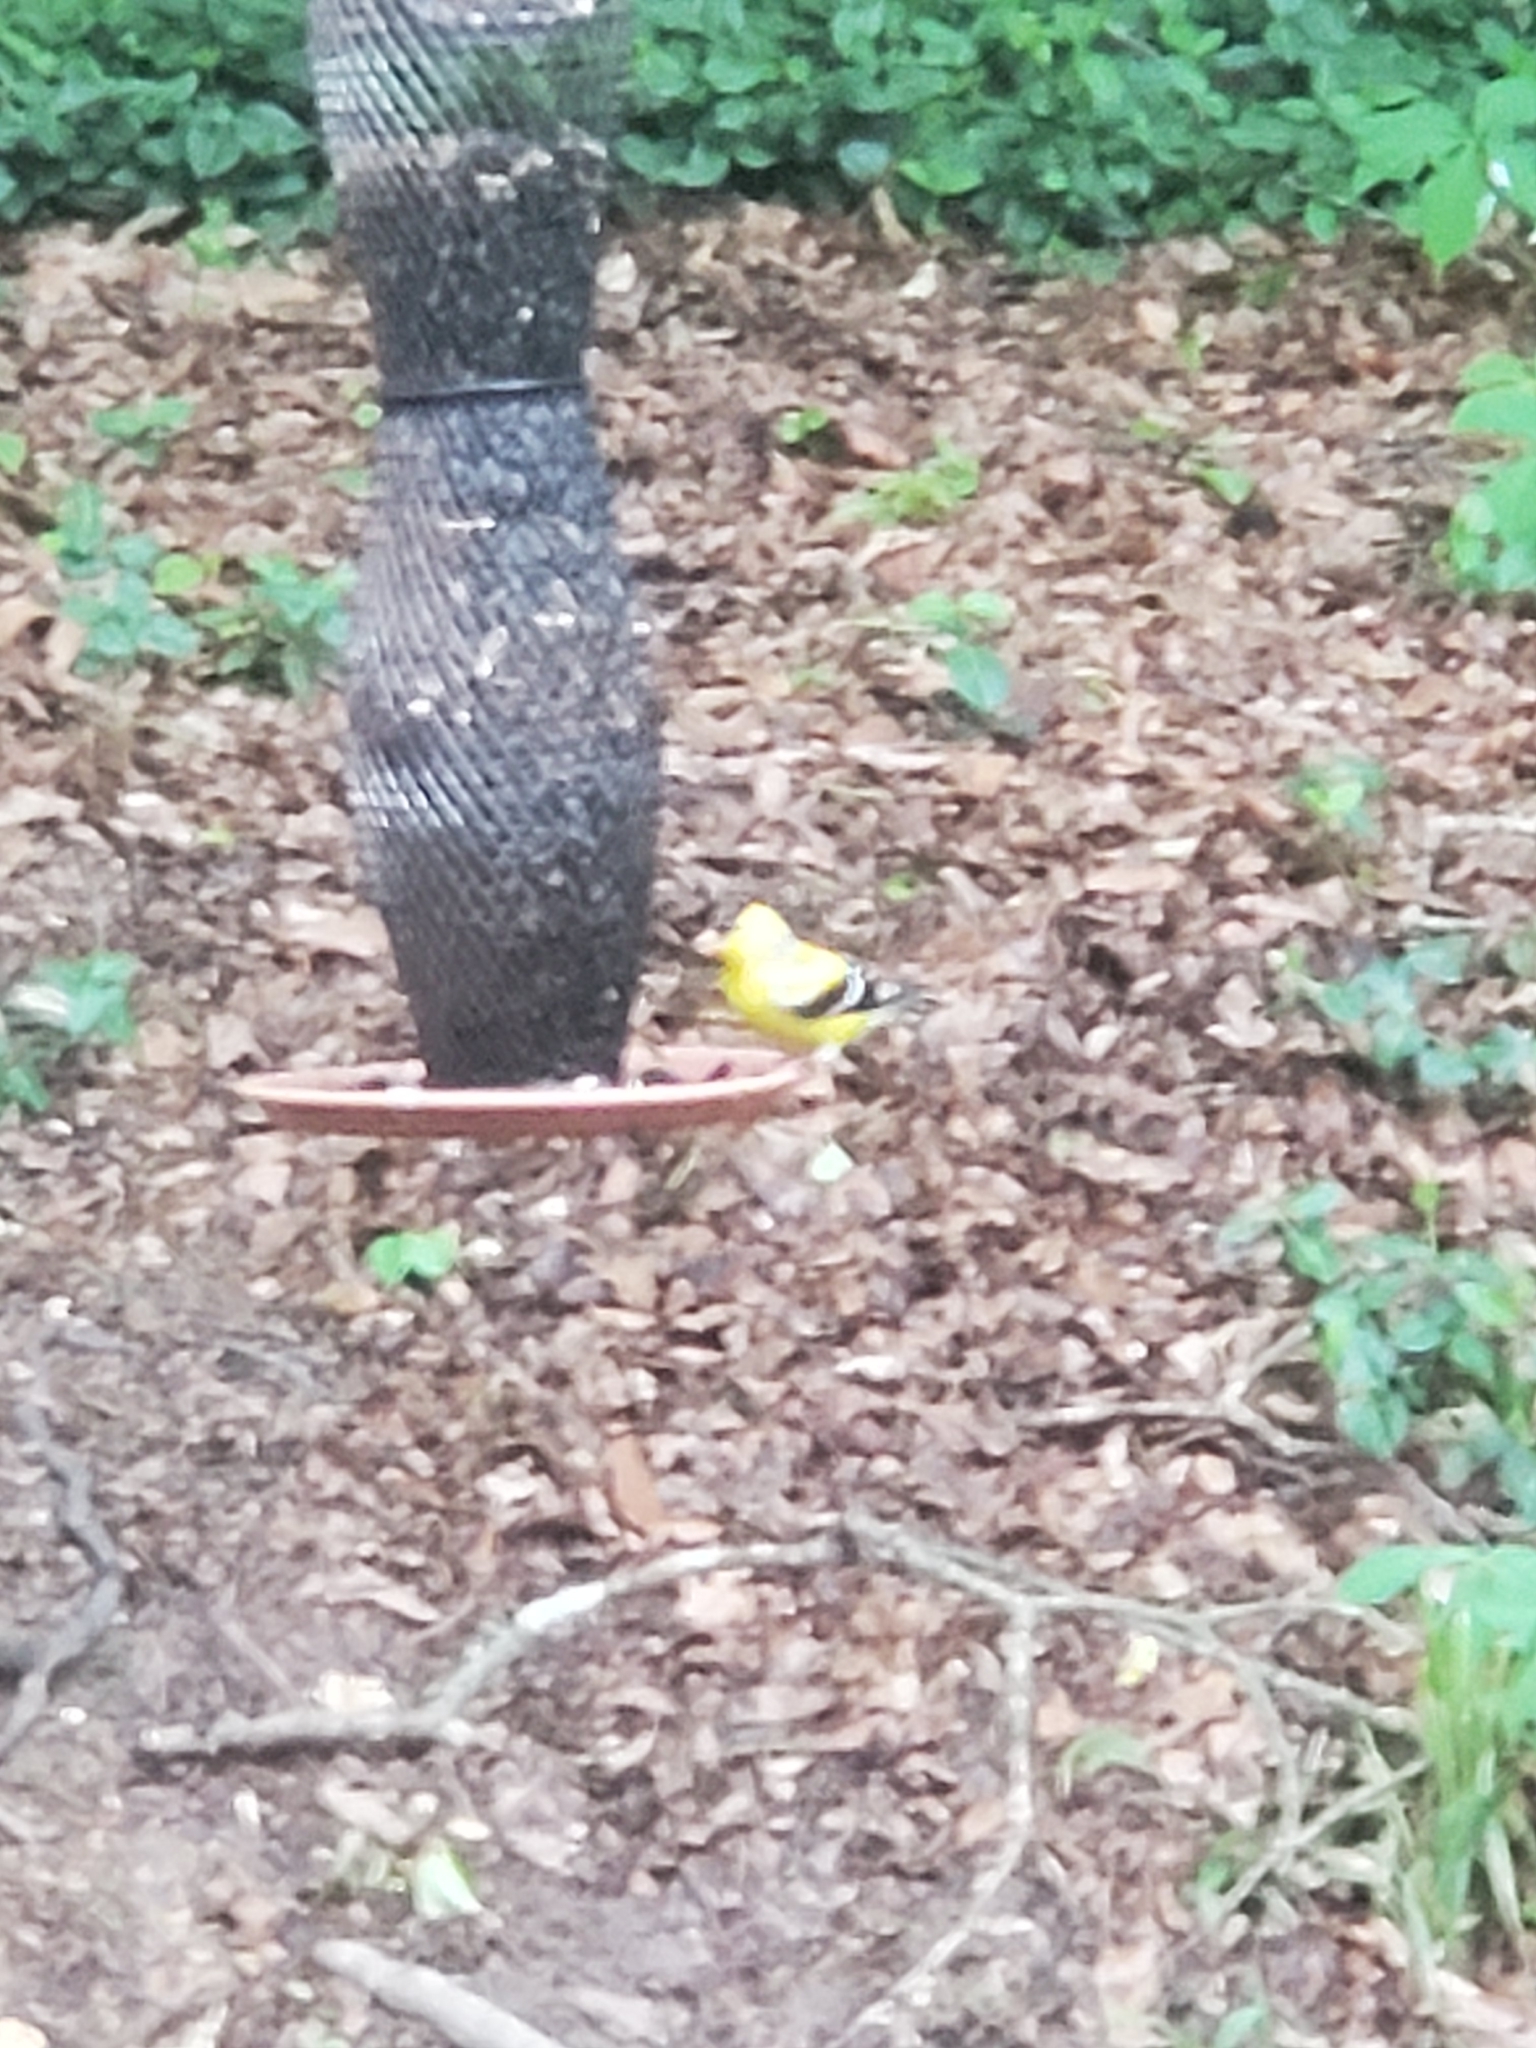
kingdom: Animalia
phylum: Chordata
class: Aves
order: Passeriformes
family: Fringillidae
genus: Spinus
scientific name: Spinus tristis
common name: American goldfinch
